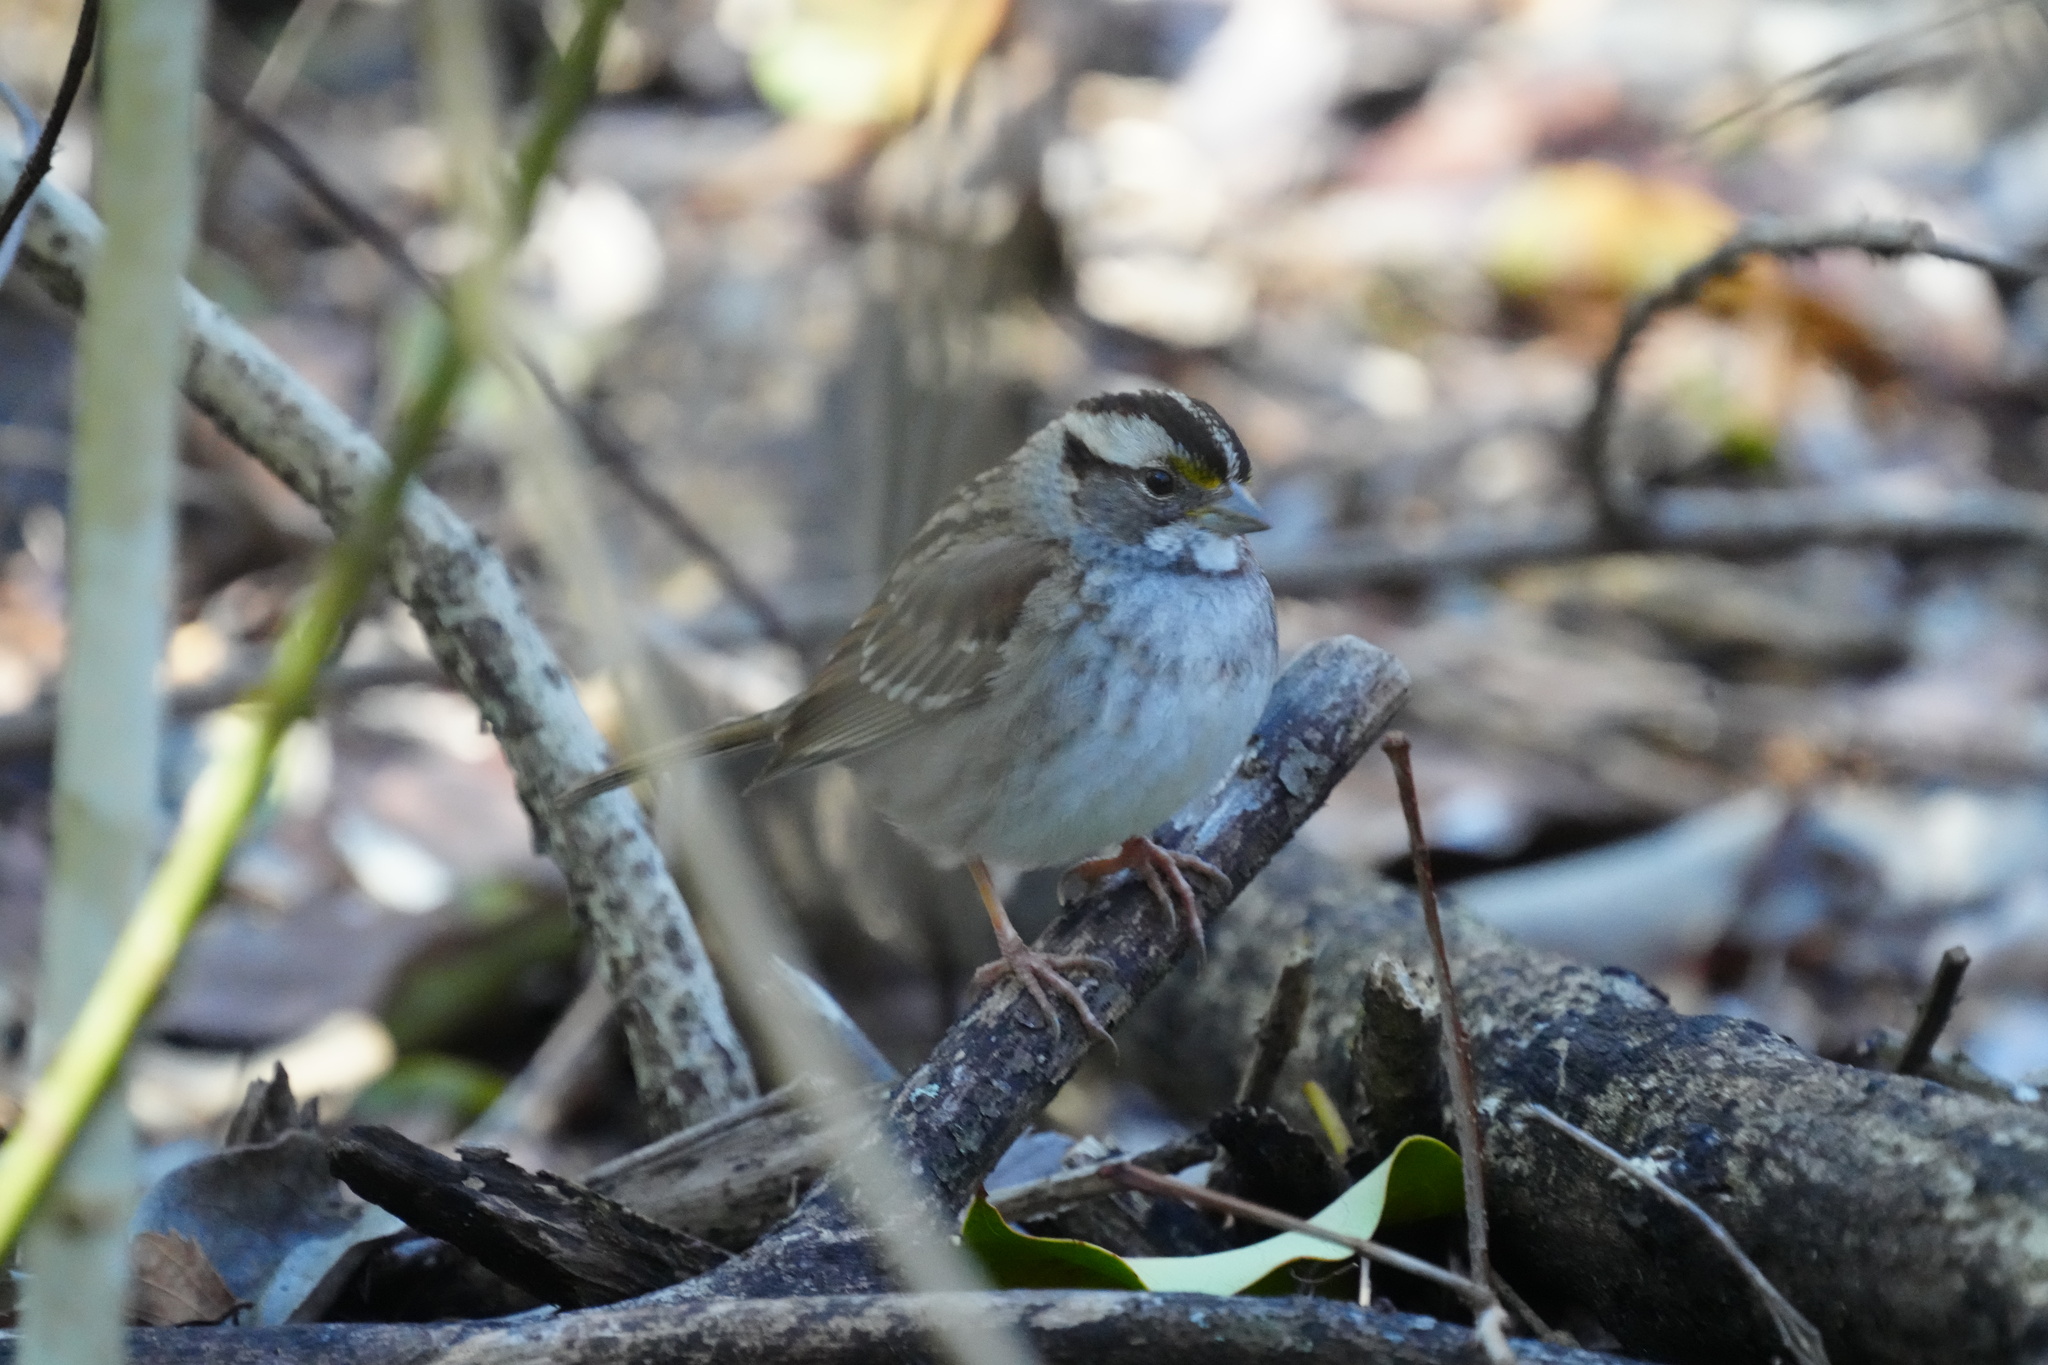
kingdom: Animalia
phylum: Chordata
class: Aves
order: Passeriformes
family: Passerellidae
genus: Zonotrichia
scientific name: Zonotrichia albicollis
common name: White-throated sparrow
